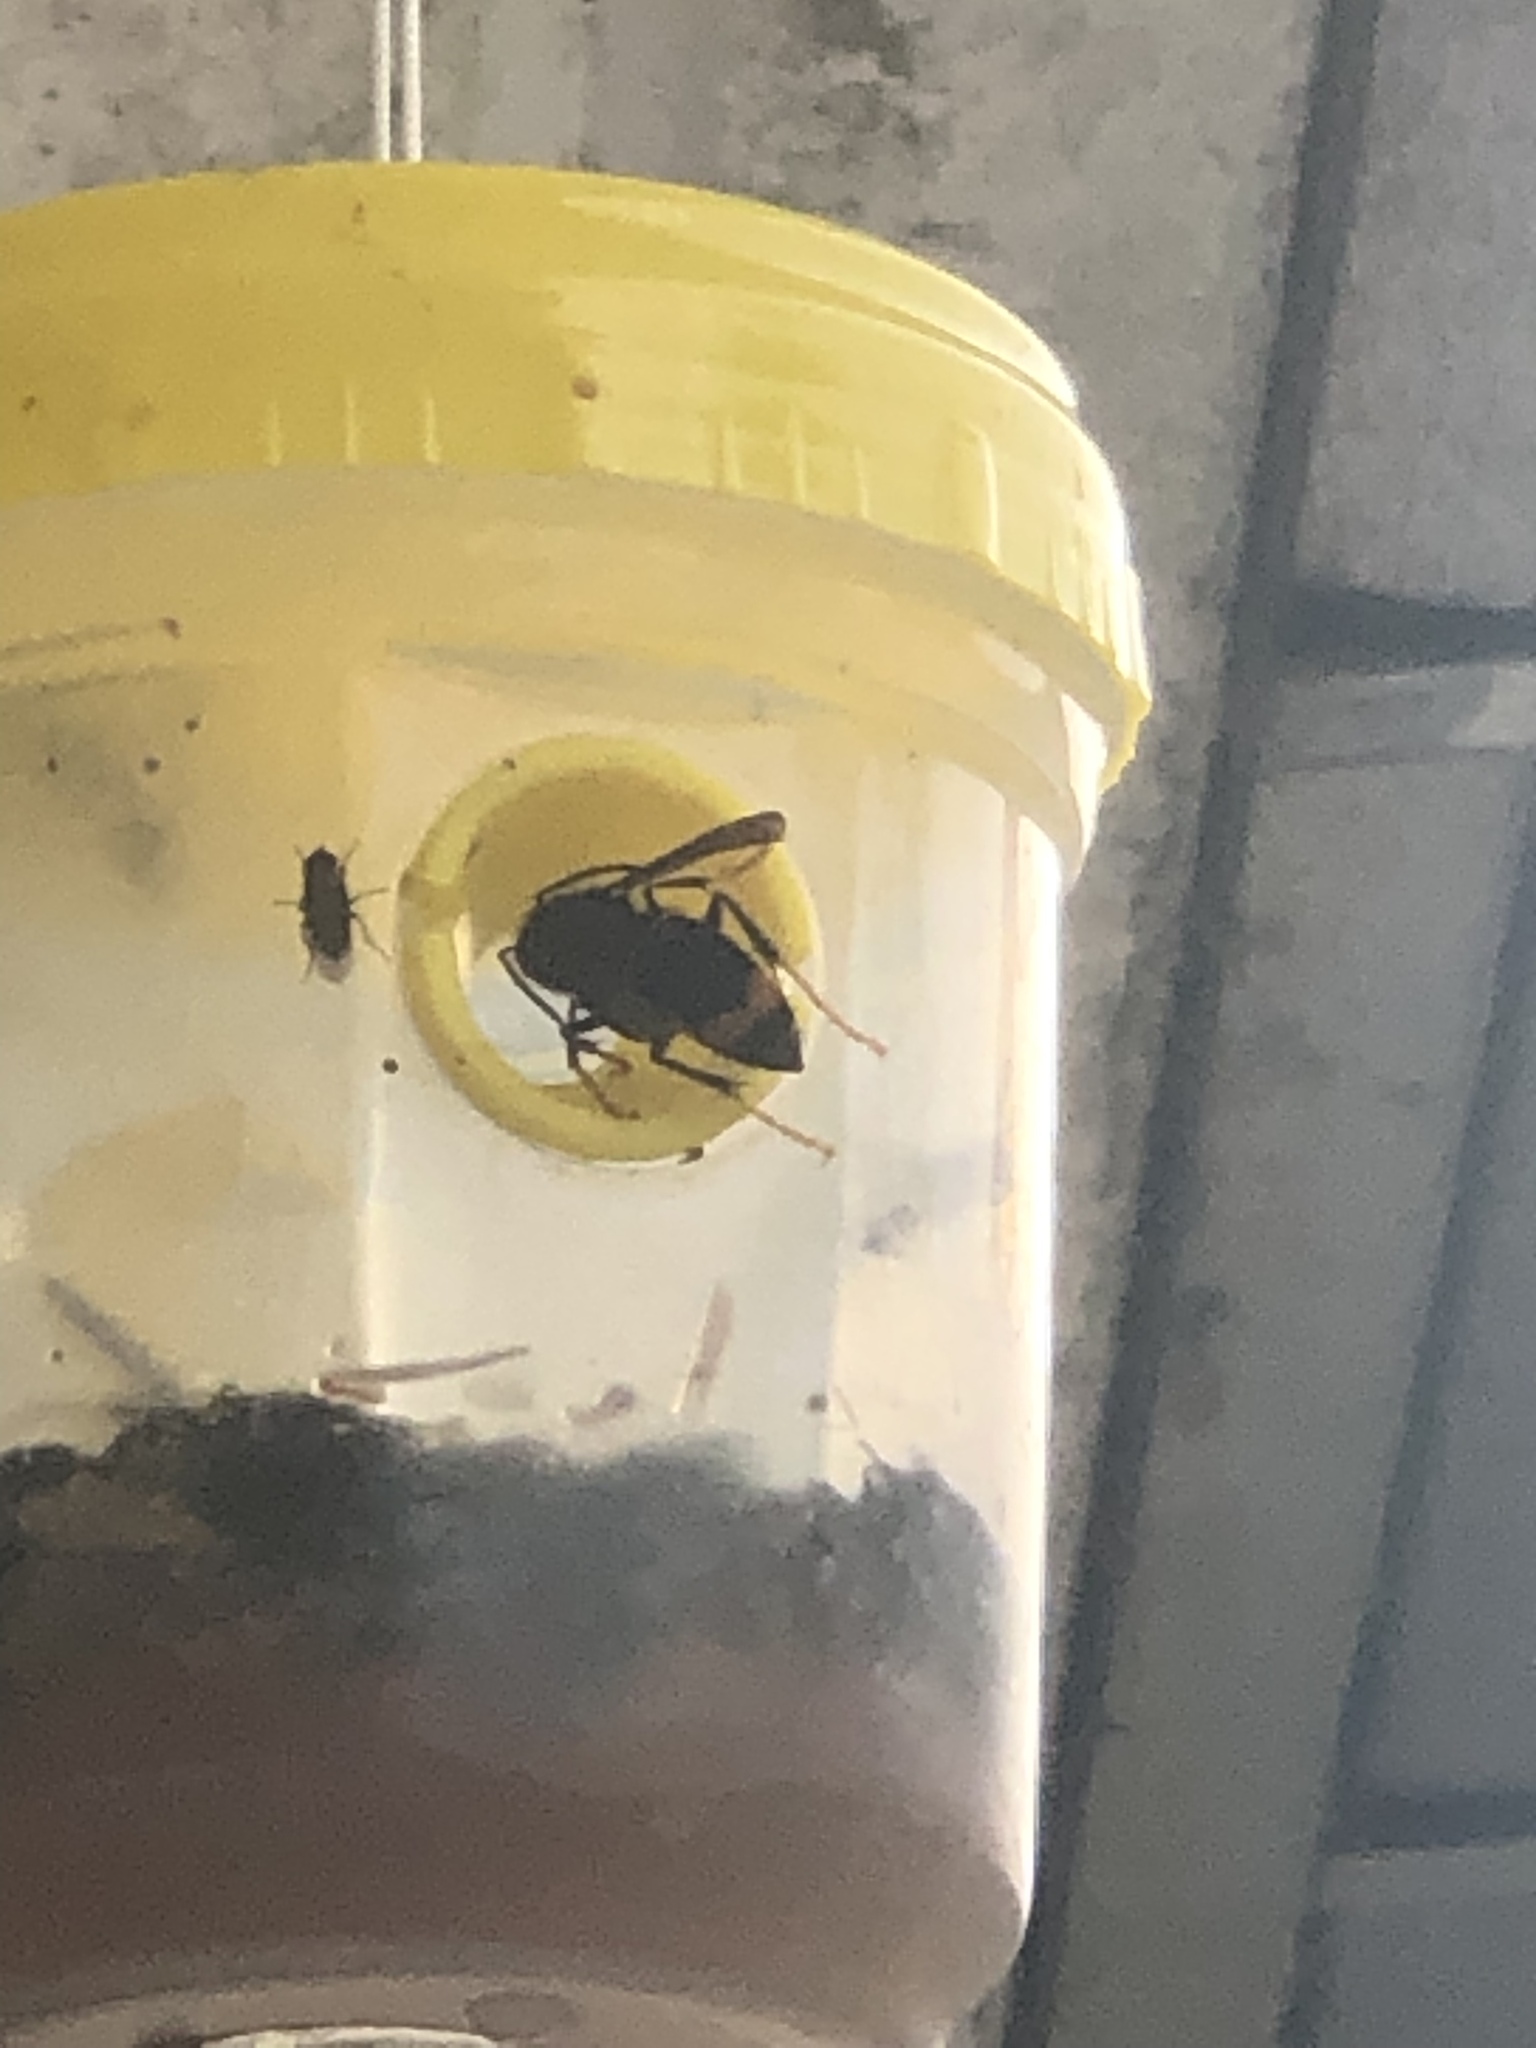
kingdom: Animalia
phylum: Arthropoda
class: Insecta
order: Hymenoptera
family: Vespidae
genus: Vespa
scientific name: Vespa velutina
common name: Asian hornet
